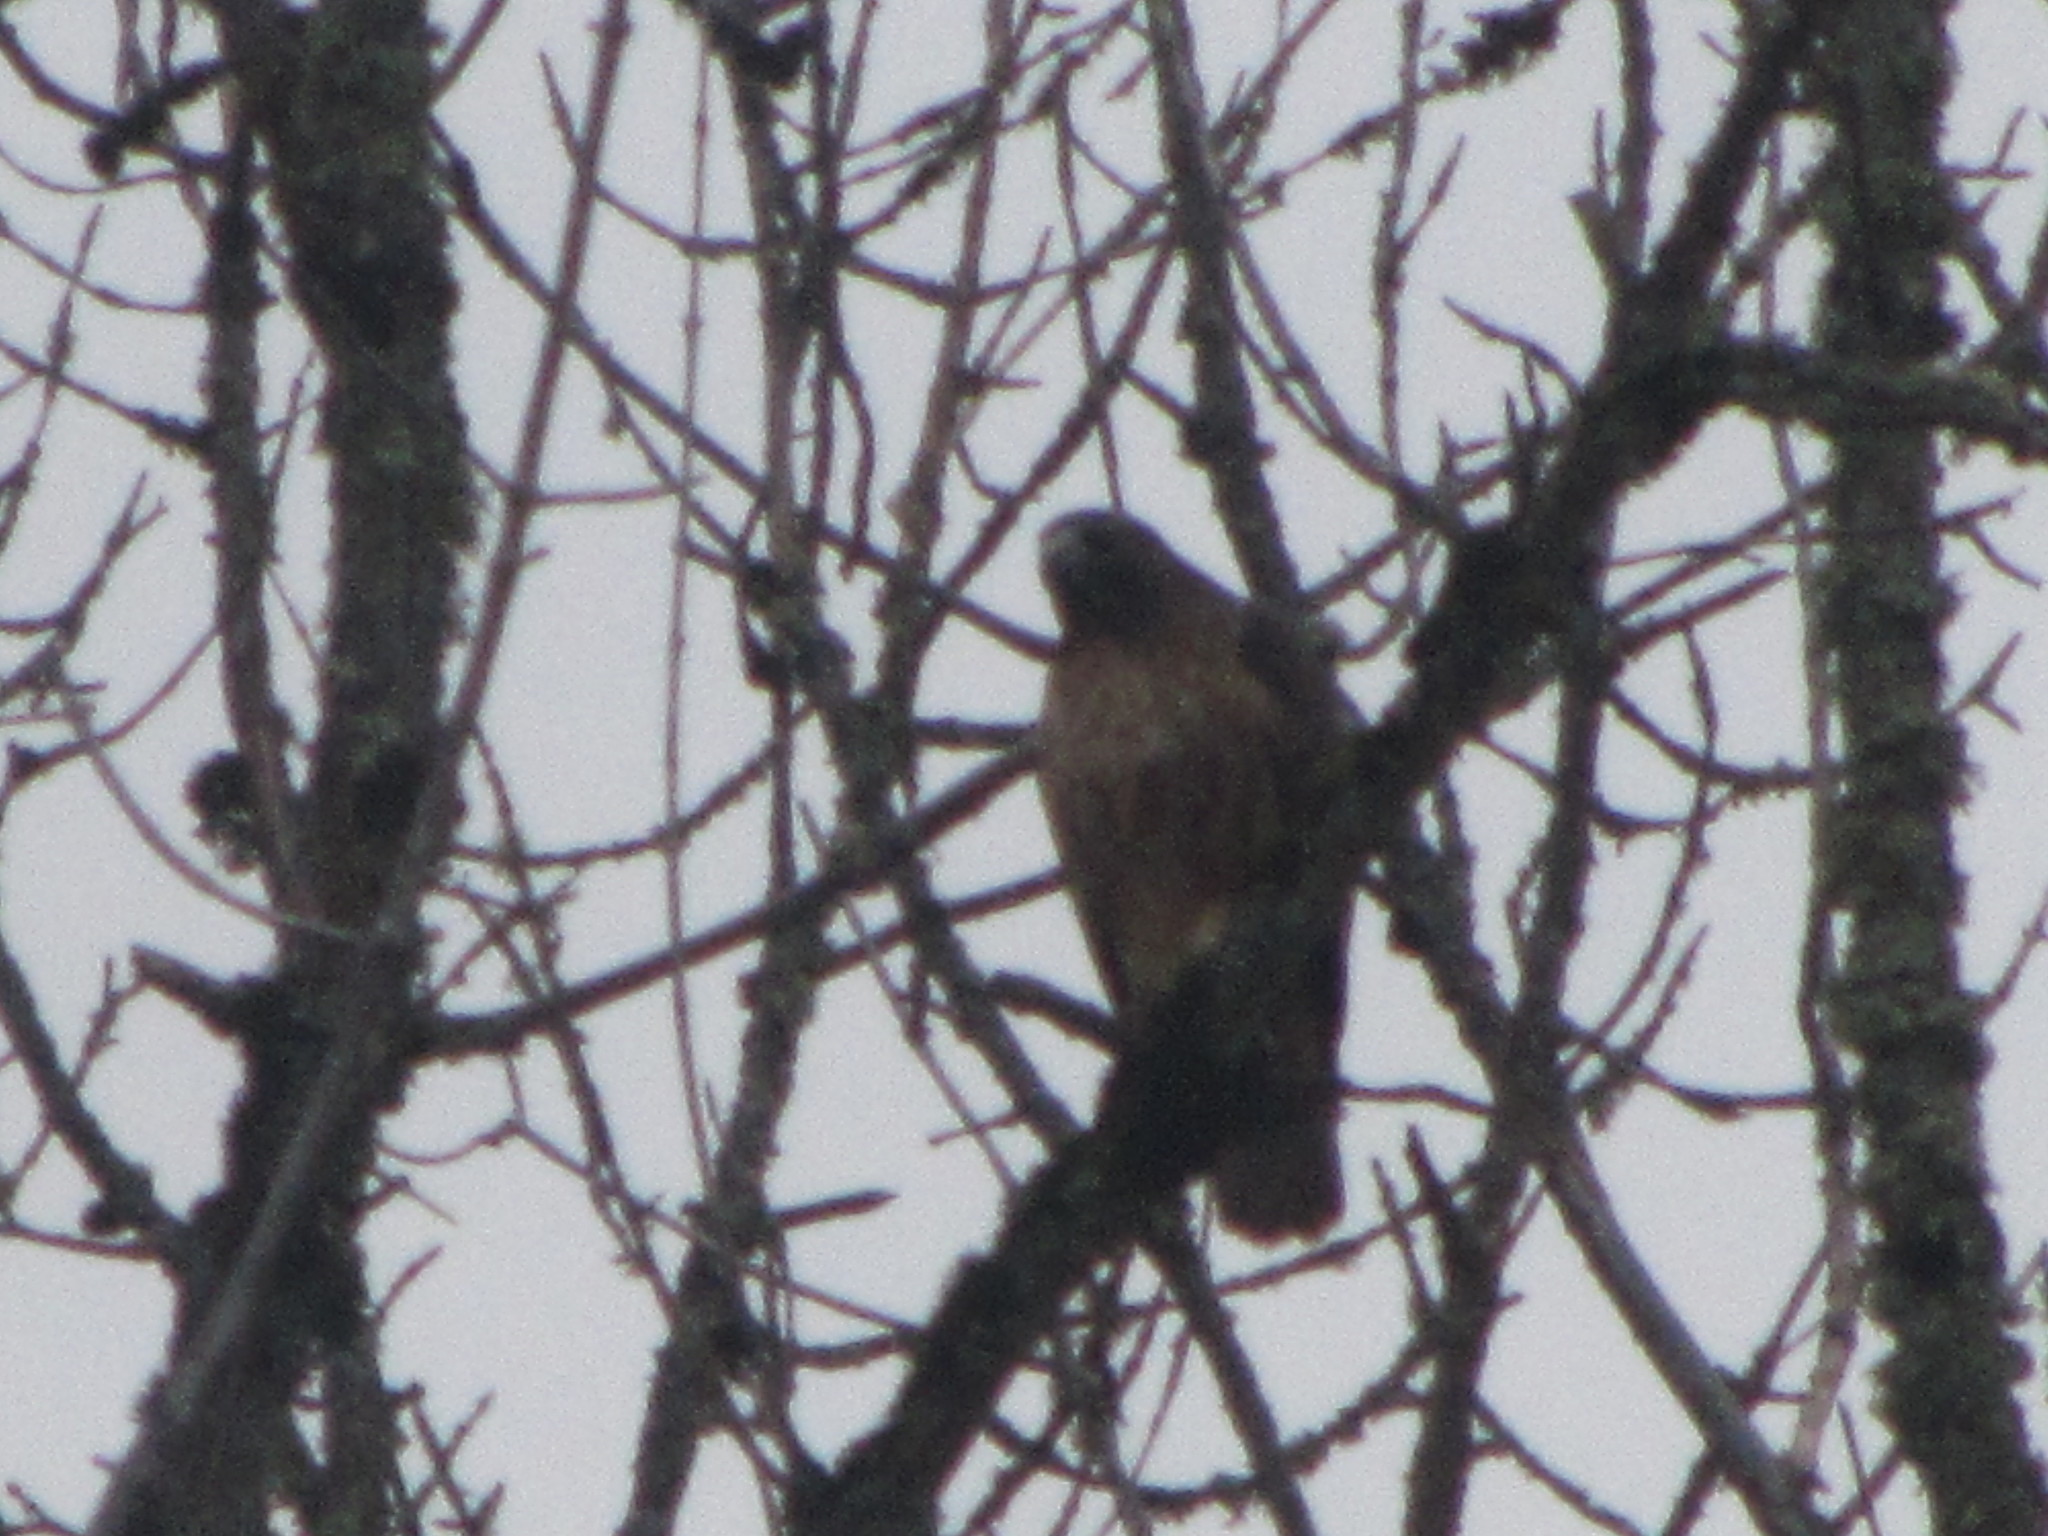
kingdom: Animalia
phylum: Chordata
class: Aves
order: Accipitriformes
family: Accipitridae
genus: Buteo
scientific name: Buteo jamaicensis
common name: Red-tailed hawk
